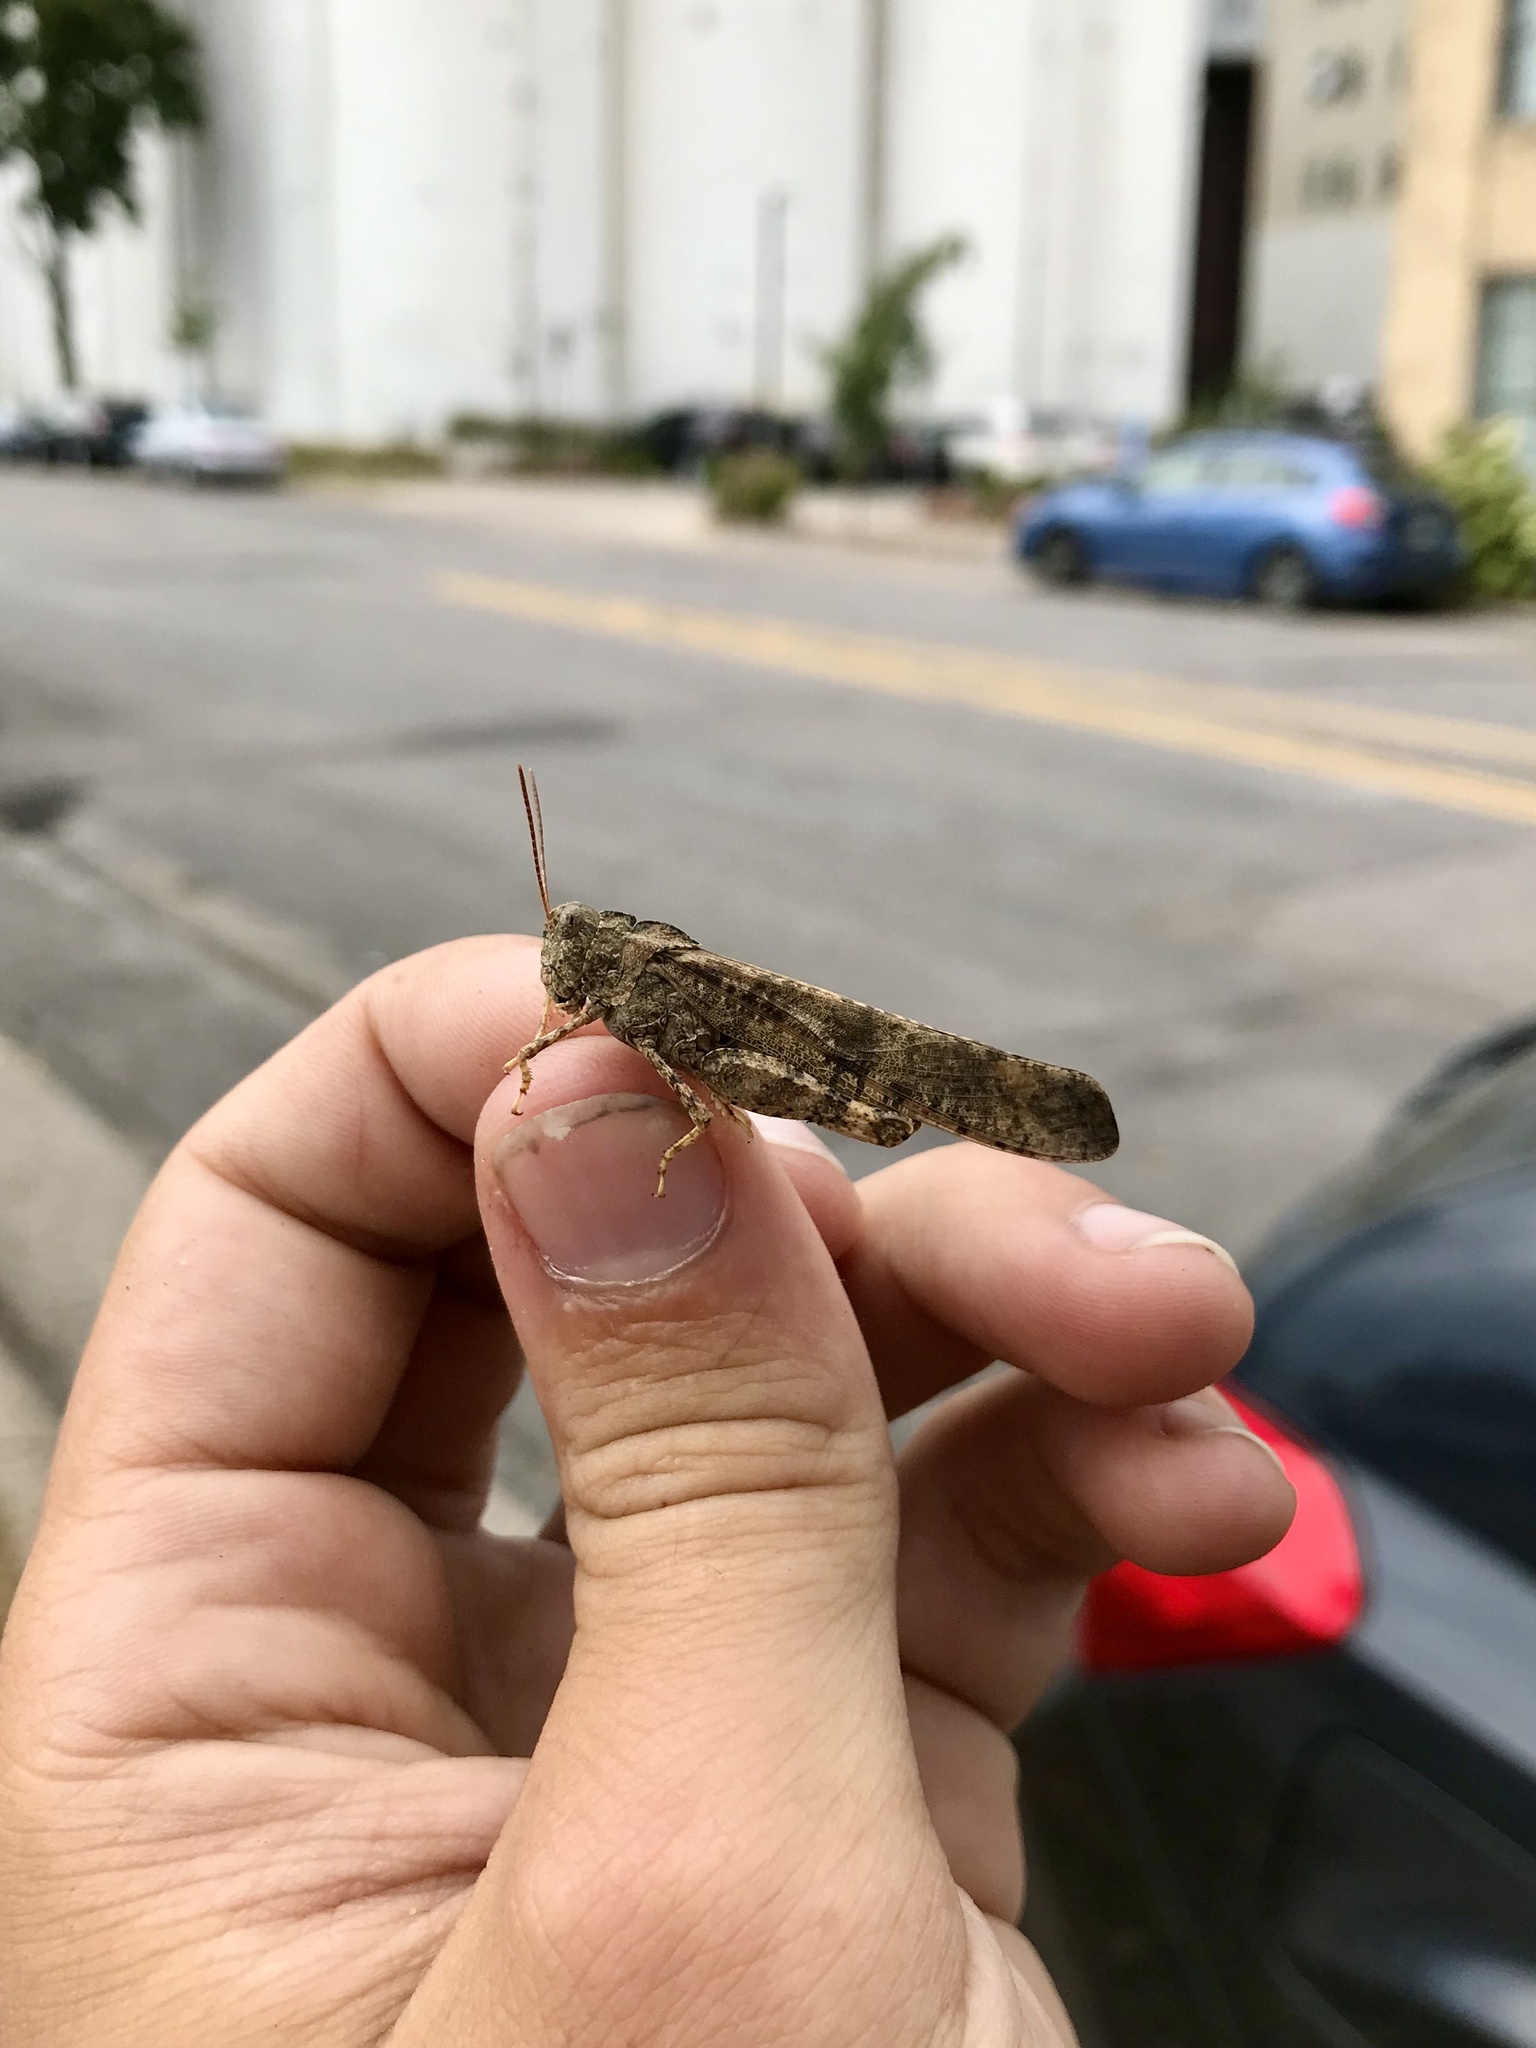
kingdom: Animalia
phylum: Arthropoda
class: Insecta
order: Orthoptera
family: Acrididae
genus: Dissosteira
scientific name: Dissosteira carolina
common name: Carolina grasshopper
